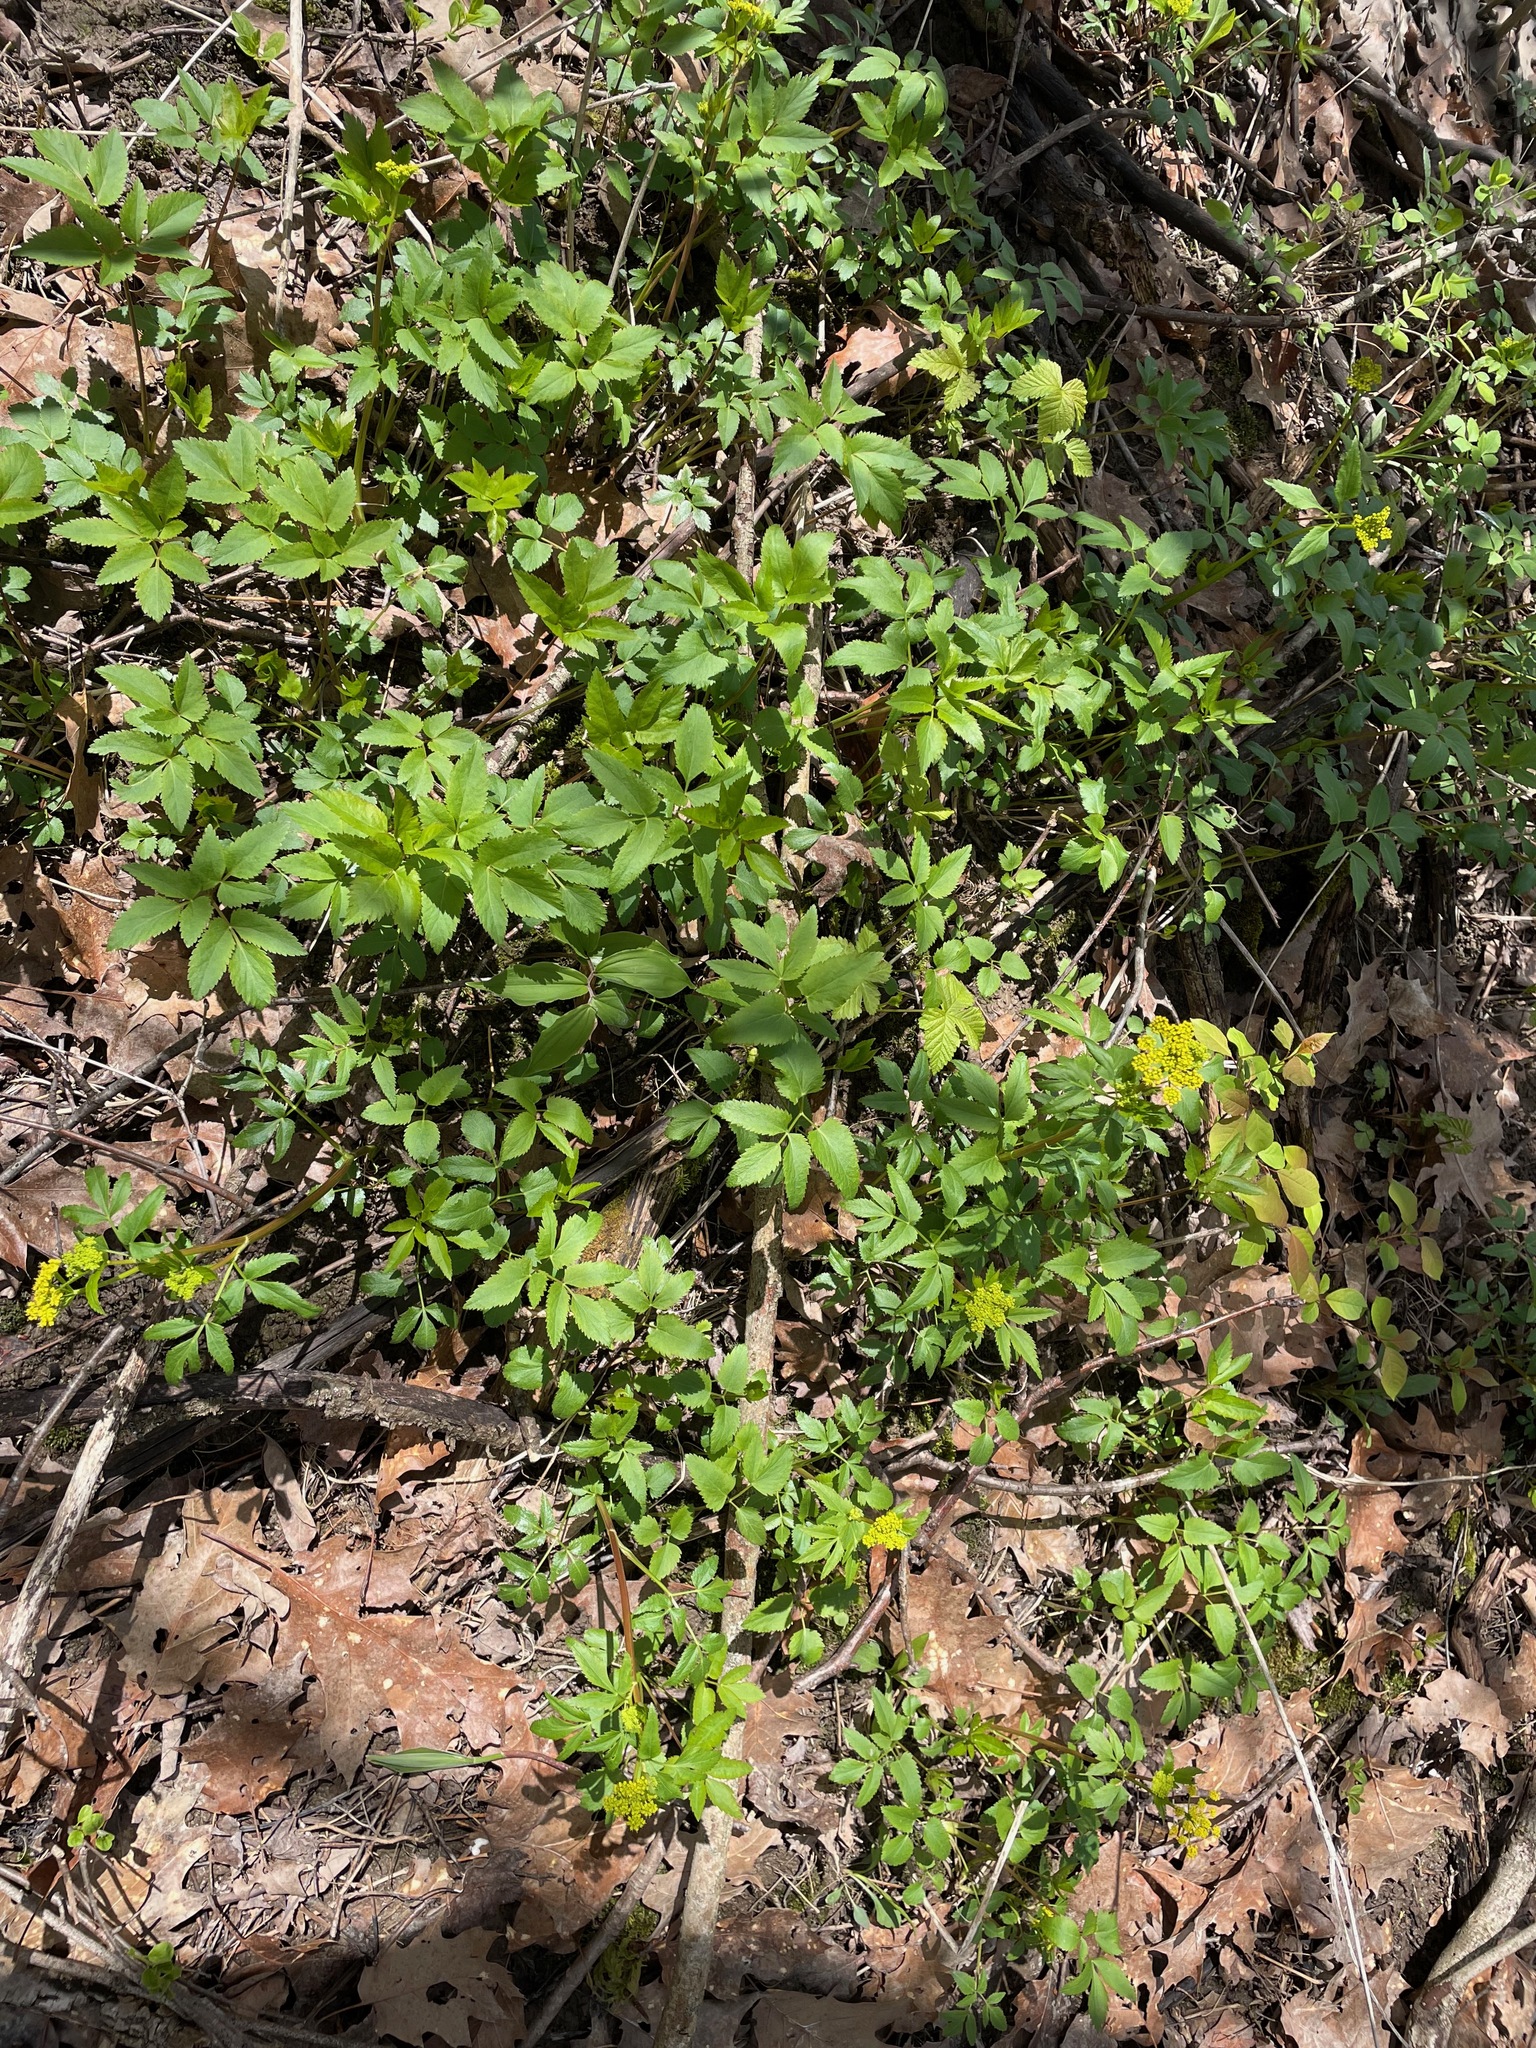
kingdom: Plantae
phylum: Tracheophyta
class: Magnoliopsida
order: Apiales
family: Apiaceae
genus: Zizia
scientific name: Zizia aurea
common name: Golden alexanders
